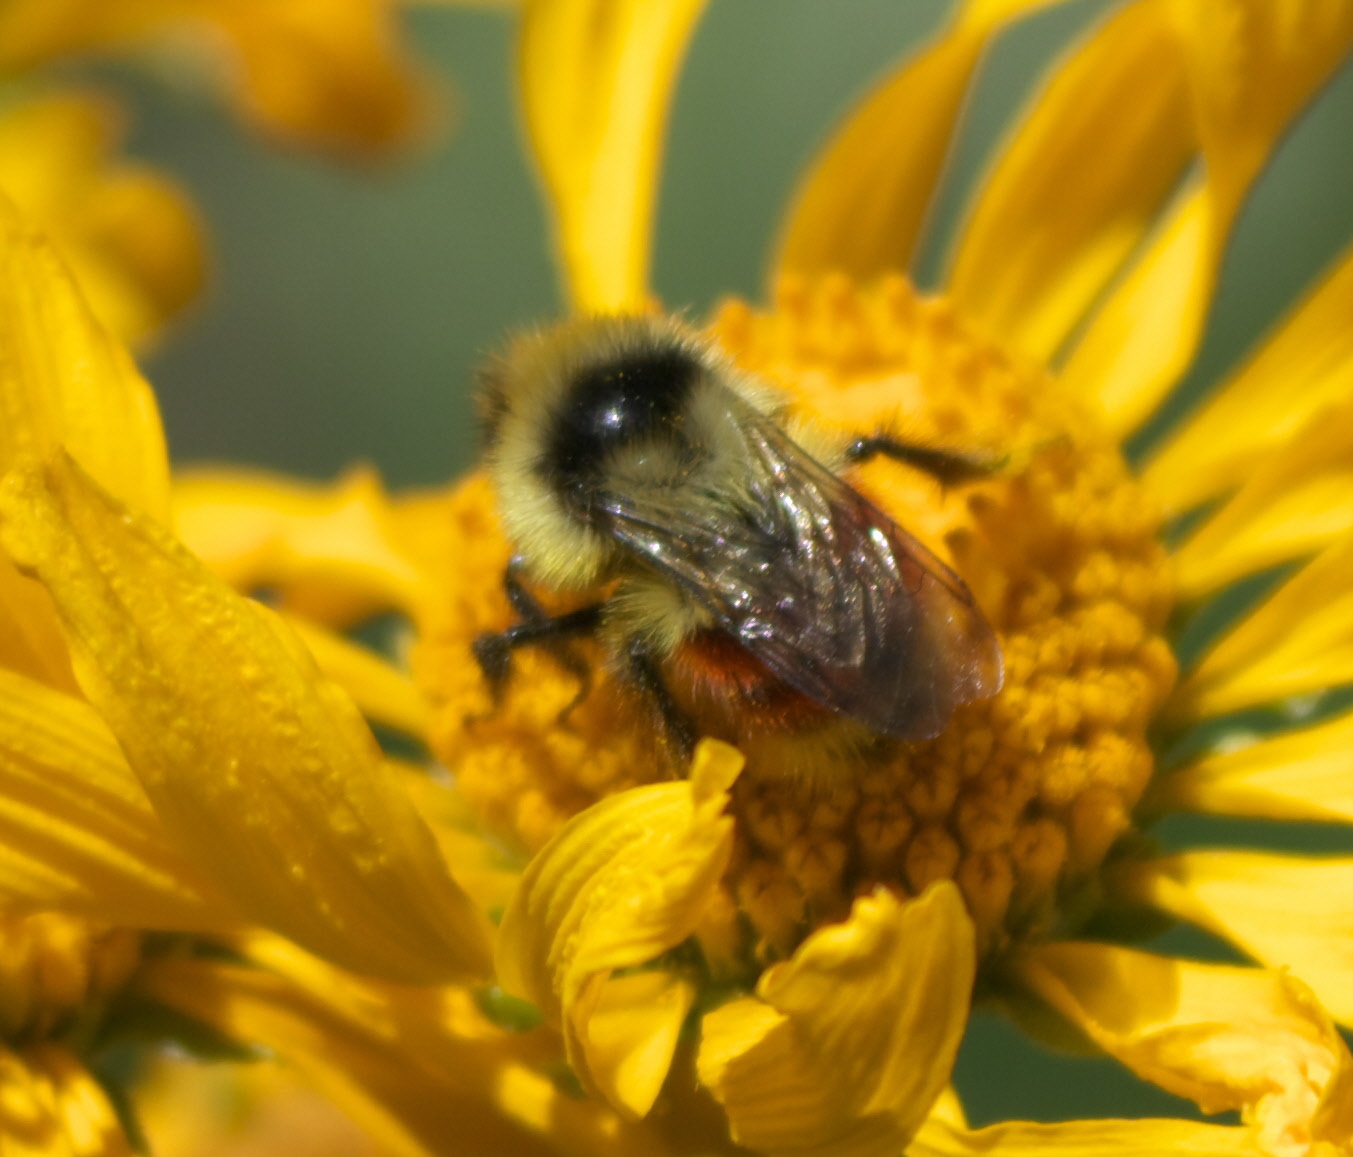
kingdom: Animalia
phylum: Arthropoda
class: Insecta
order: Hymenoptera
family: Apidae
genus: Pyrobombus
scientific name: Pyrobombus
